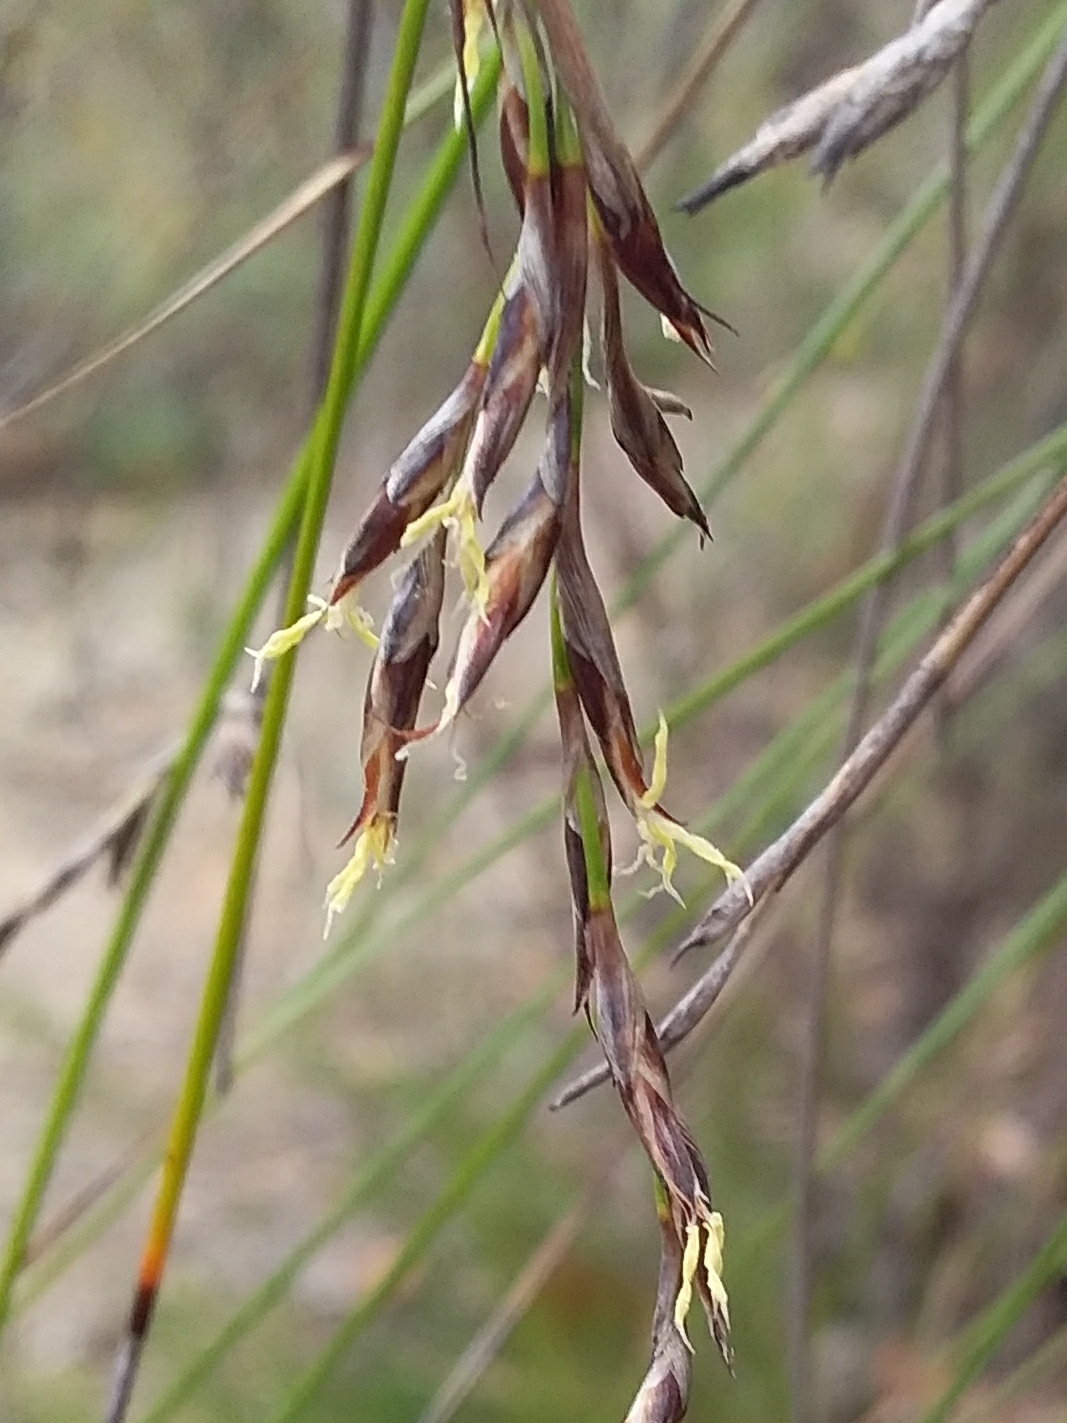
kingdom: Plantae
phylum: Tracheophyta
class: Liliopsida
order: Poales
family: Cyperaceae
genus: Lepidosperma
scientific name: Lepidosperma semiteres
